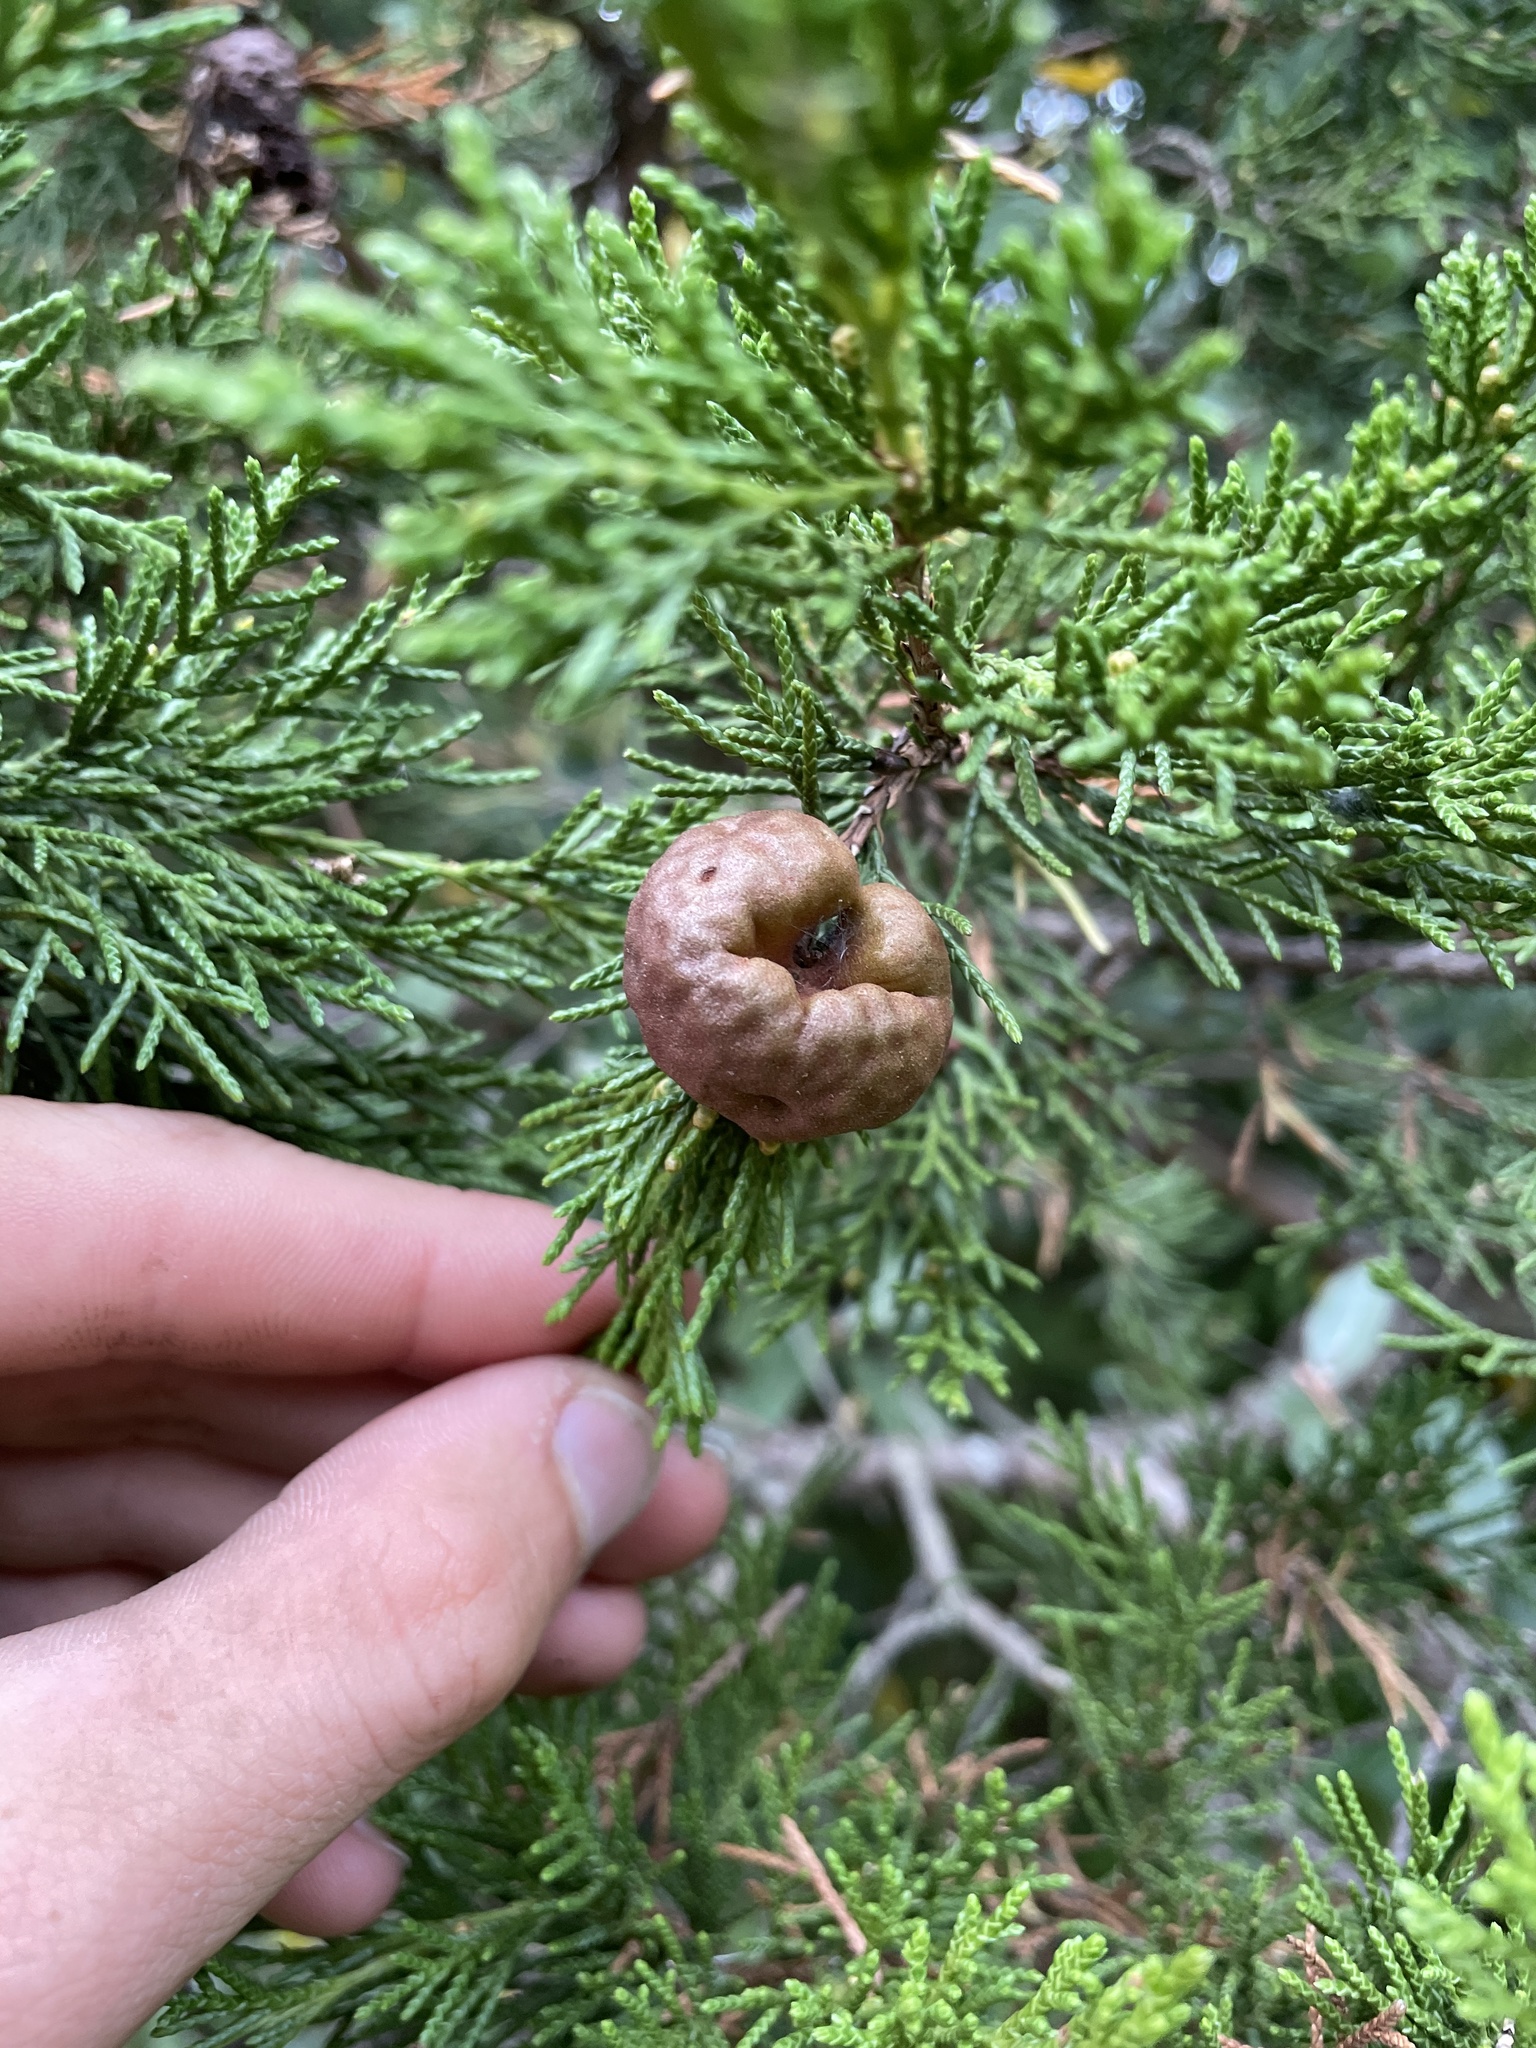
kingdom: Fungi
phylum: Basidiomycota
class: Pucciniomycetes
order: Pucciniales
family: Gymnosporangiaceae
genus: Gymnosporangium
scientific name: Gymnosporangium juniperi-virginianae
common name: Juniper-apple rust
